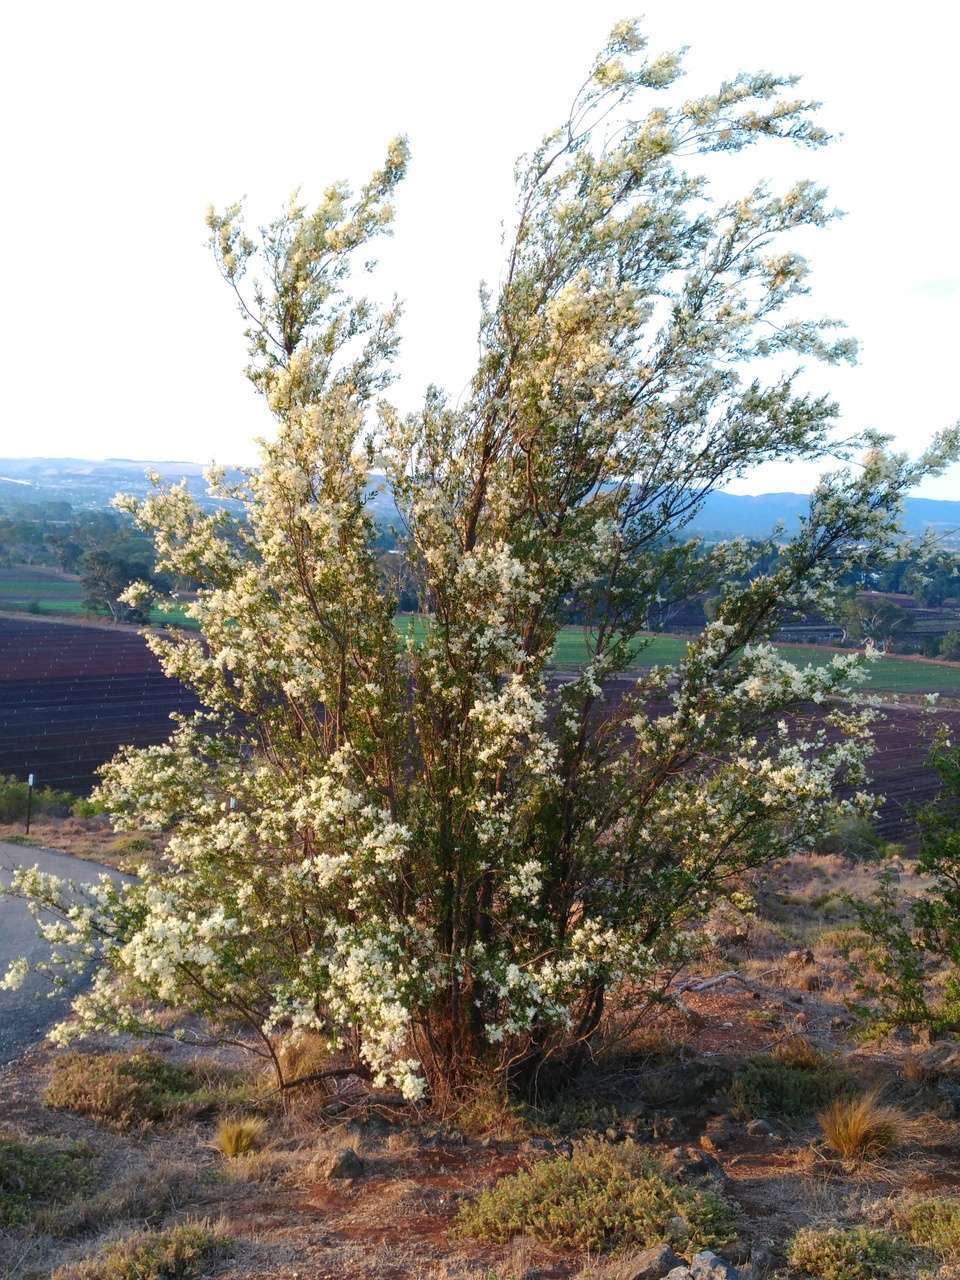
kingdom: Plantae
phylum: Tracheophyta
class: Magnoliopsida
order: Apiales
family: Pittosporaceae
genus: Bursaria
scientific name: Bursaria spinosa
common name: Australian blackthorn
